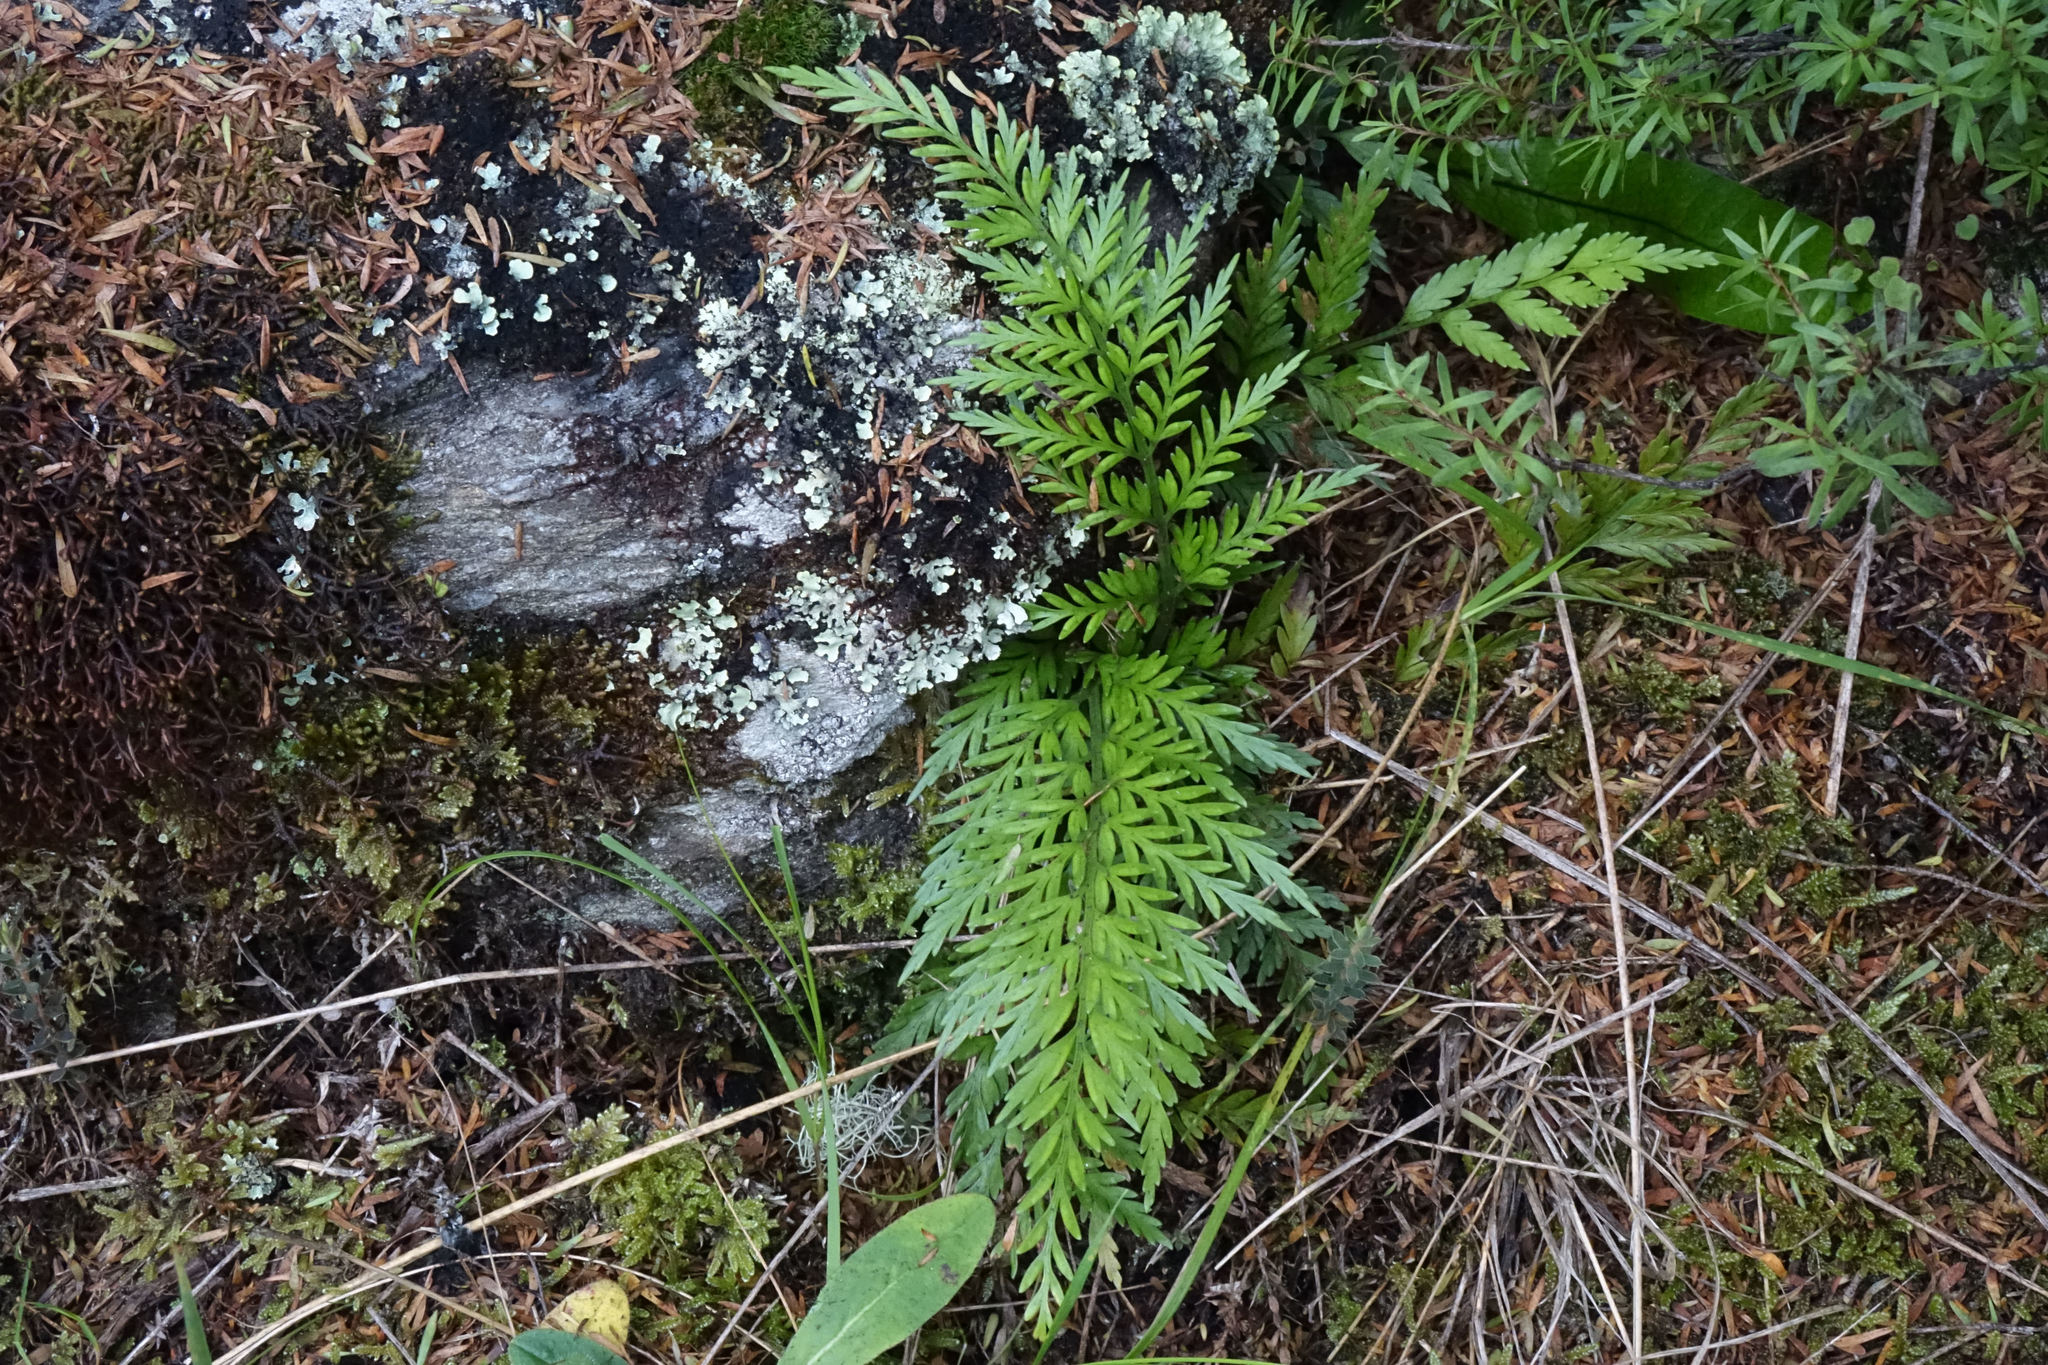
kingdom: Plantae
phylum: Tracheophyta
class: Polypodiopsida
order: Polypodiales
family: Aspleniaceae
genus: Asplenium
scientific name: Asplenium appendiculatum
